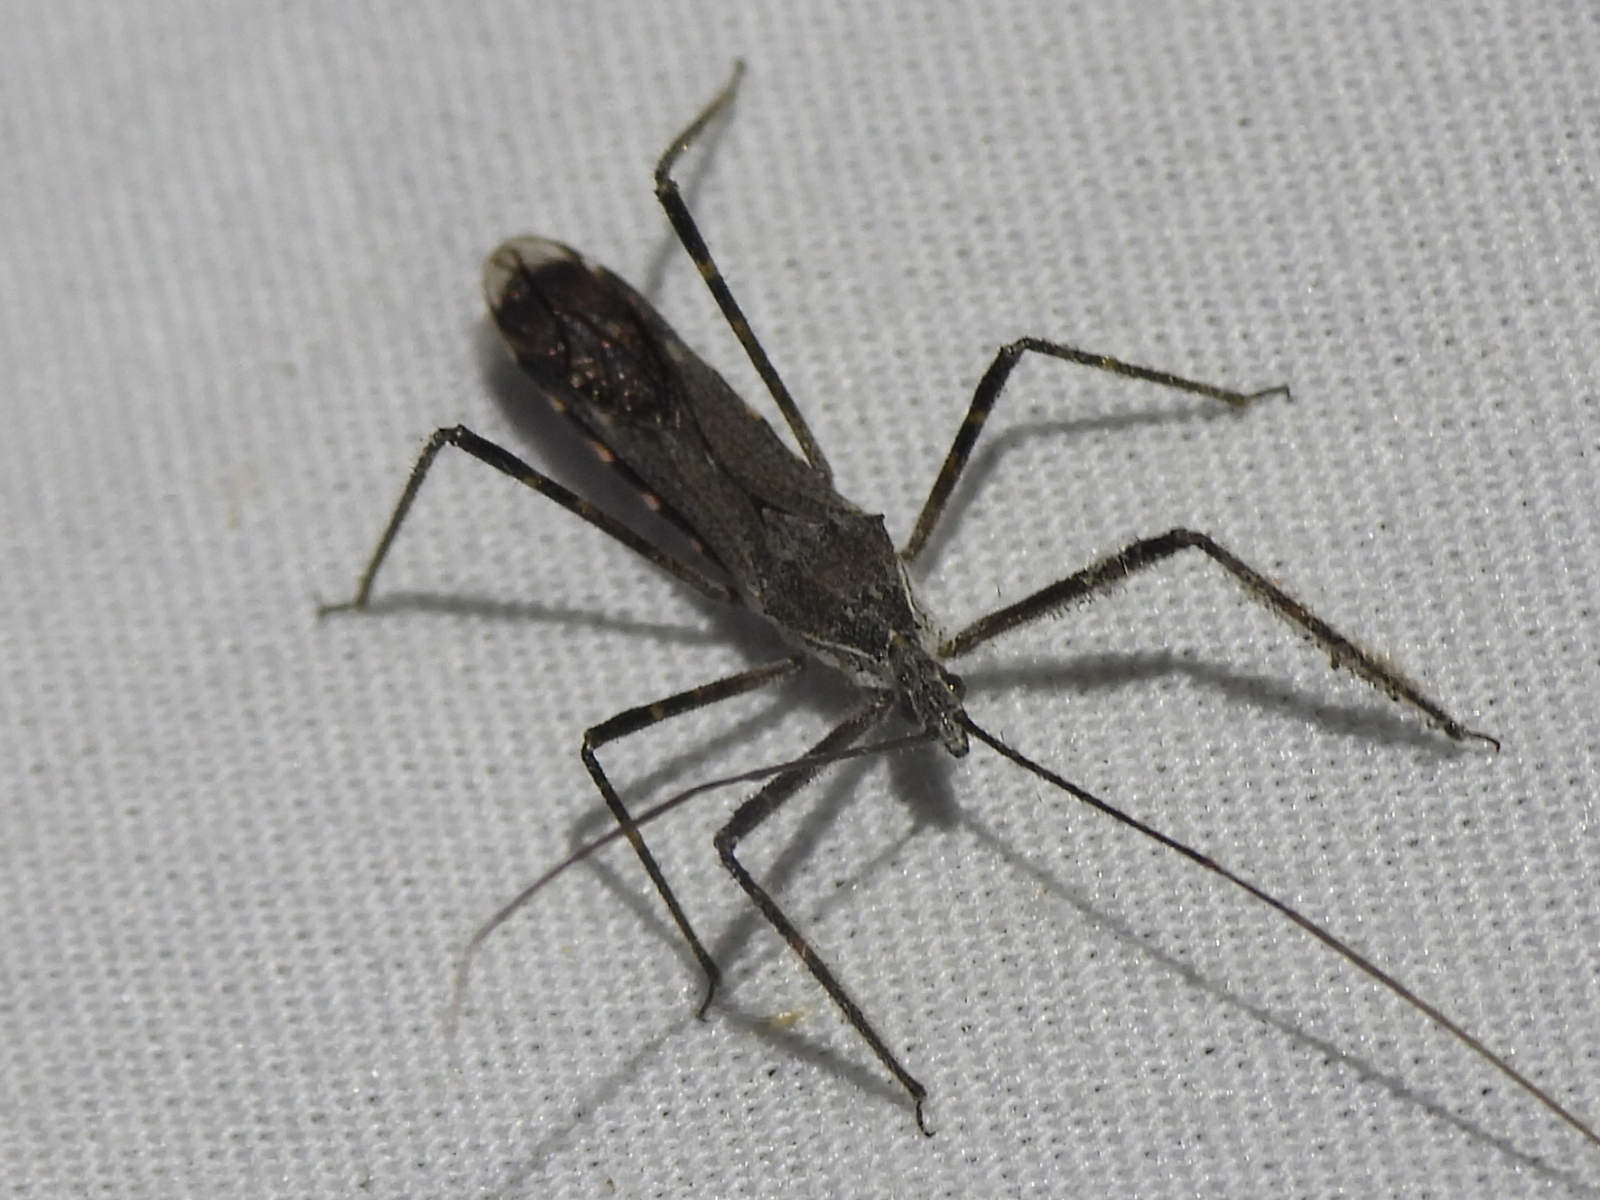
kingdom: Animalia
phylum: Arthropoda
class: Insecta
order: Hemiptera
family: Reduviidae
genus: Zelus
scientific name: Zelus tetracanthus
